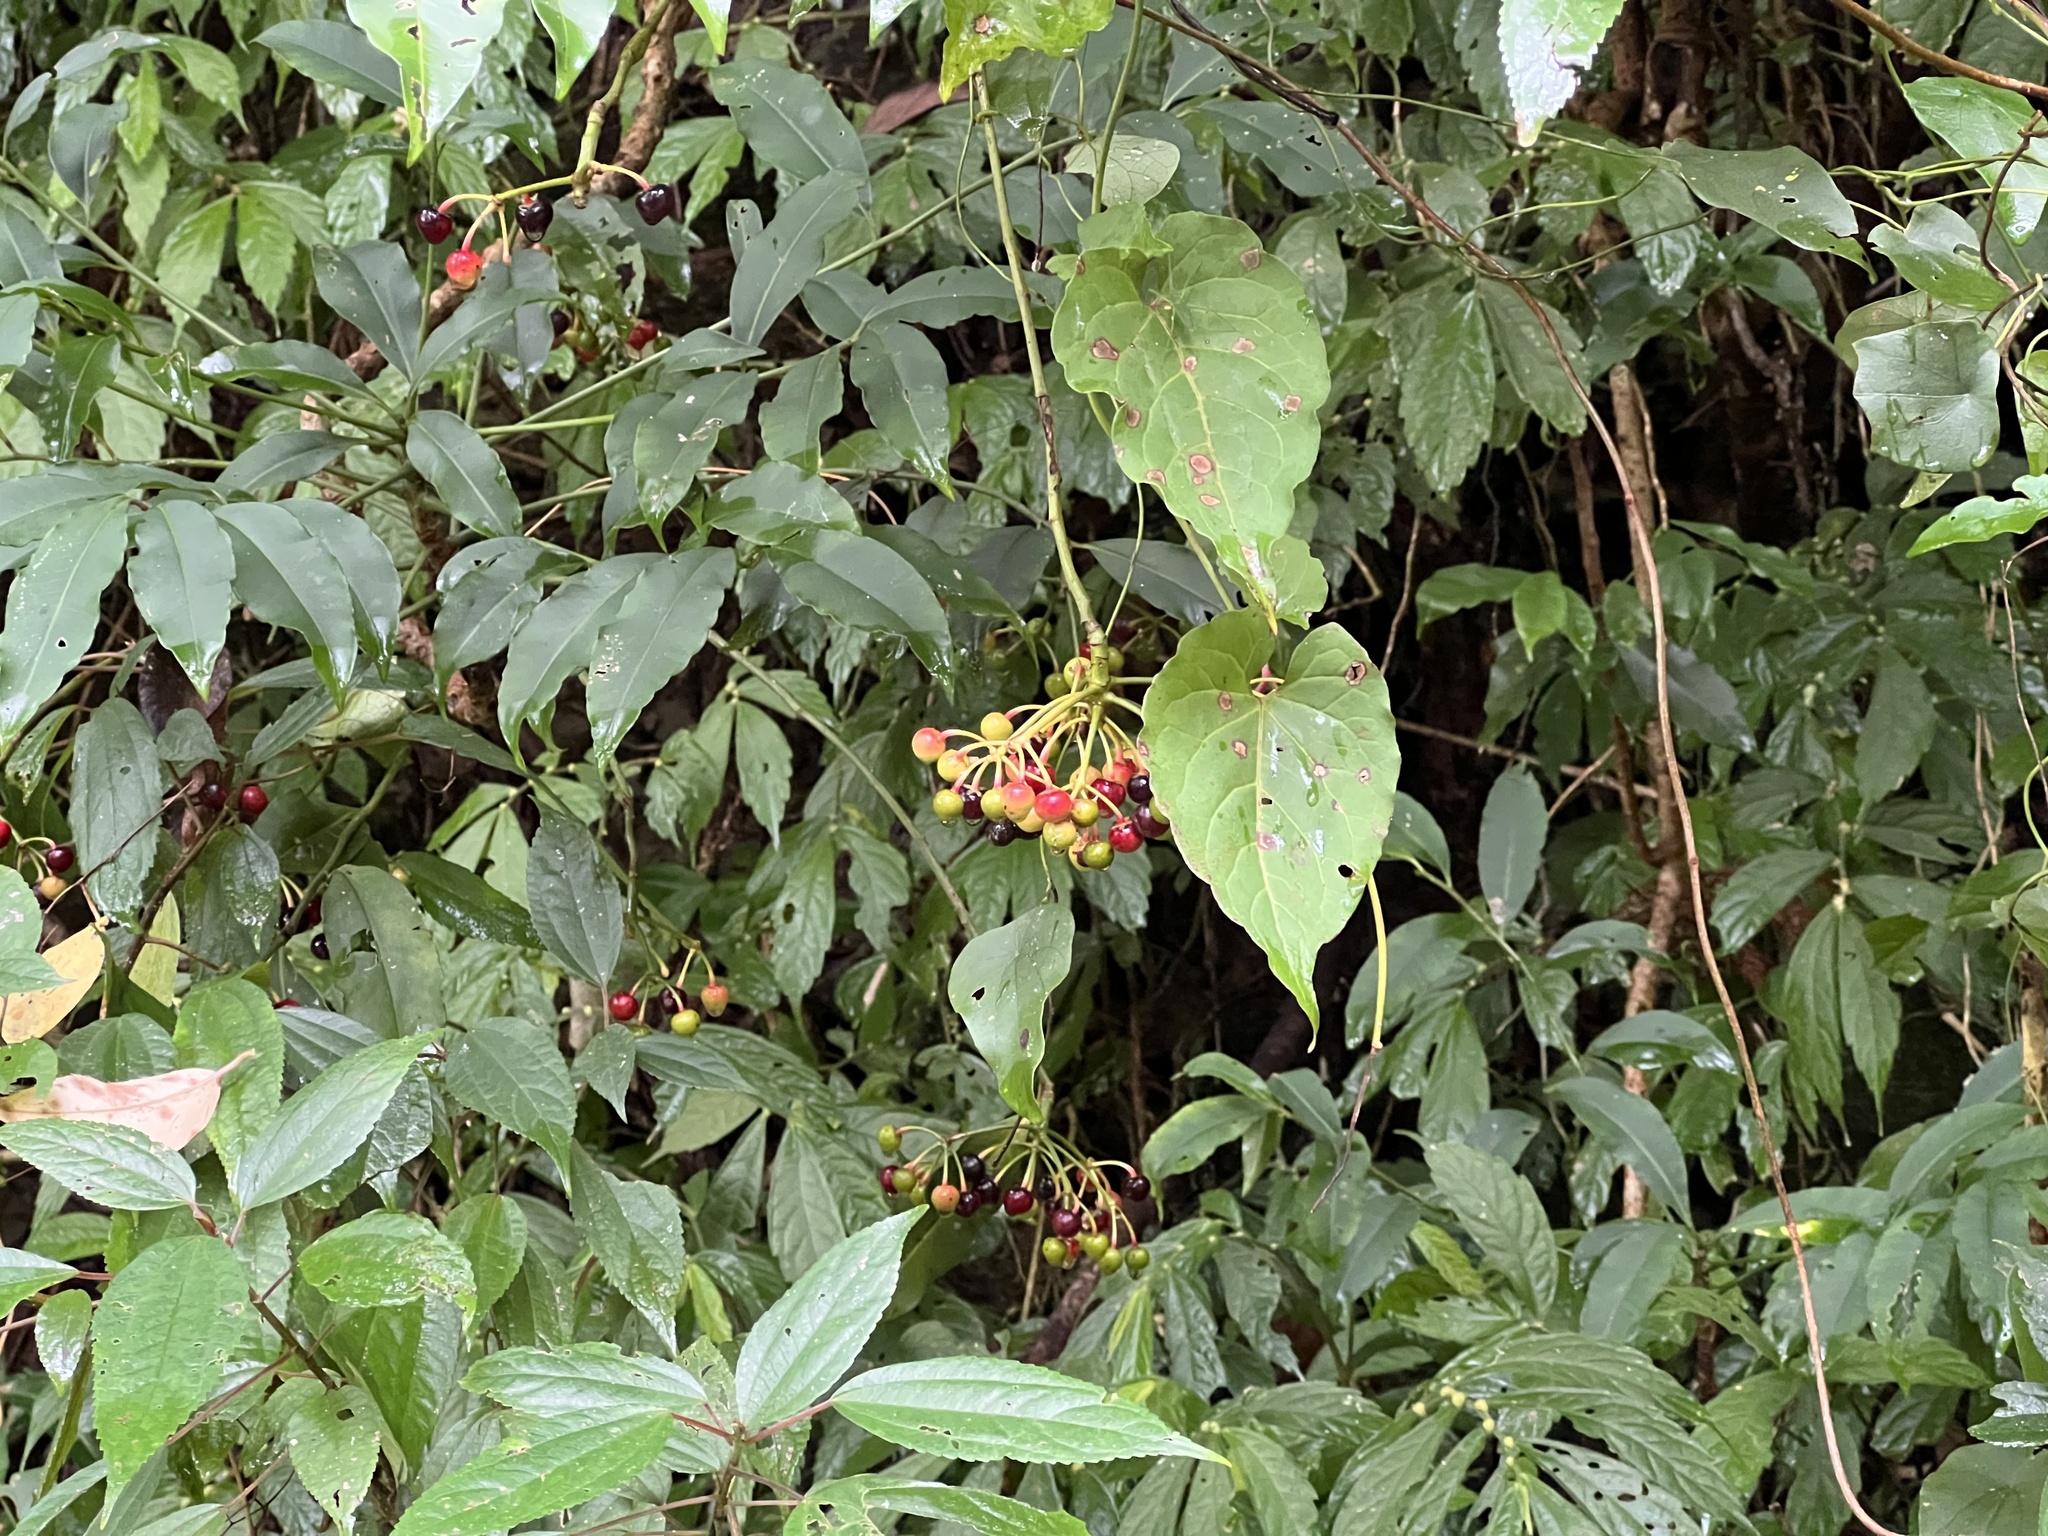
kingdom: Plantae
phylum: Tracheophyta
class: Magnoliopsida
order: Ericales
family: Primulaceae
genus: Ardisia
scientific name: Ardisia polysticta
